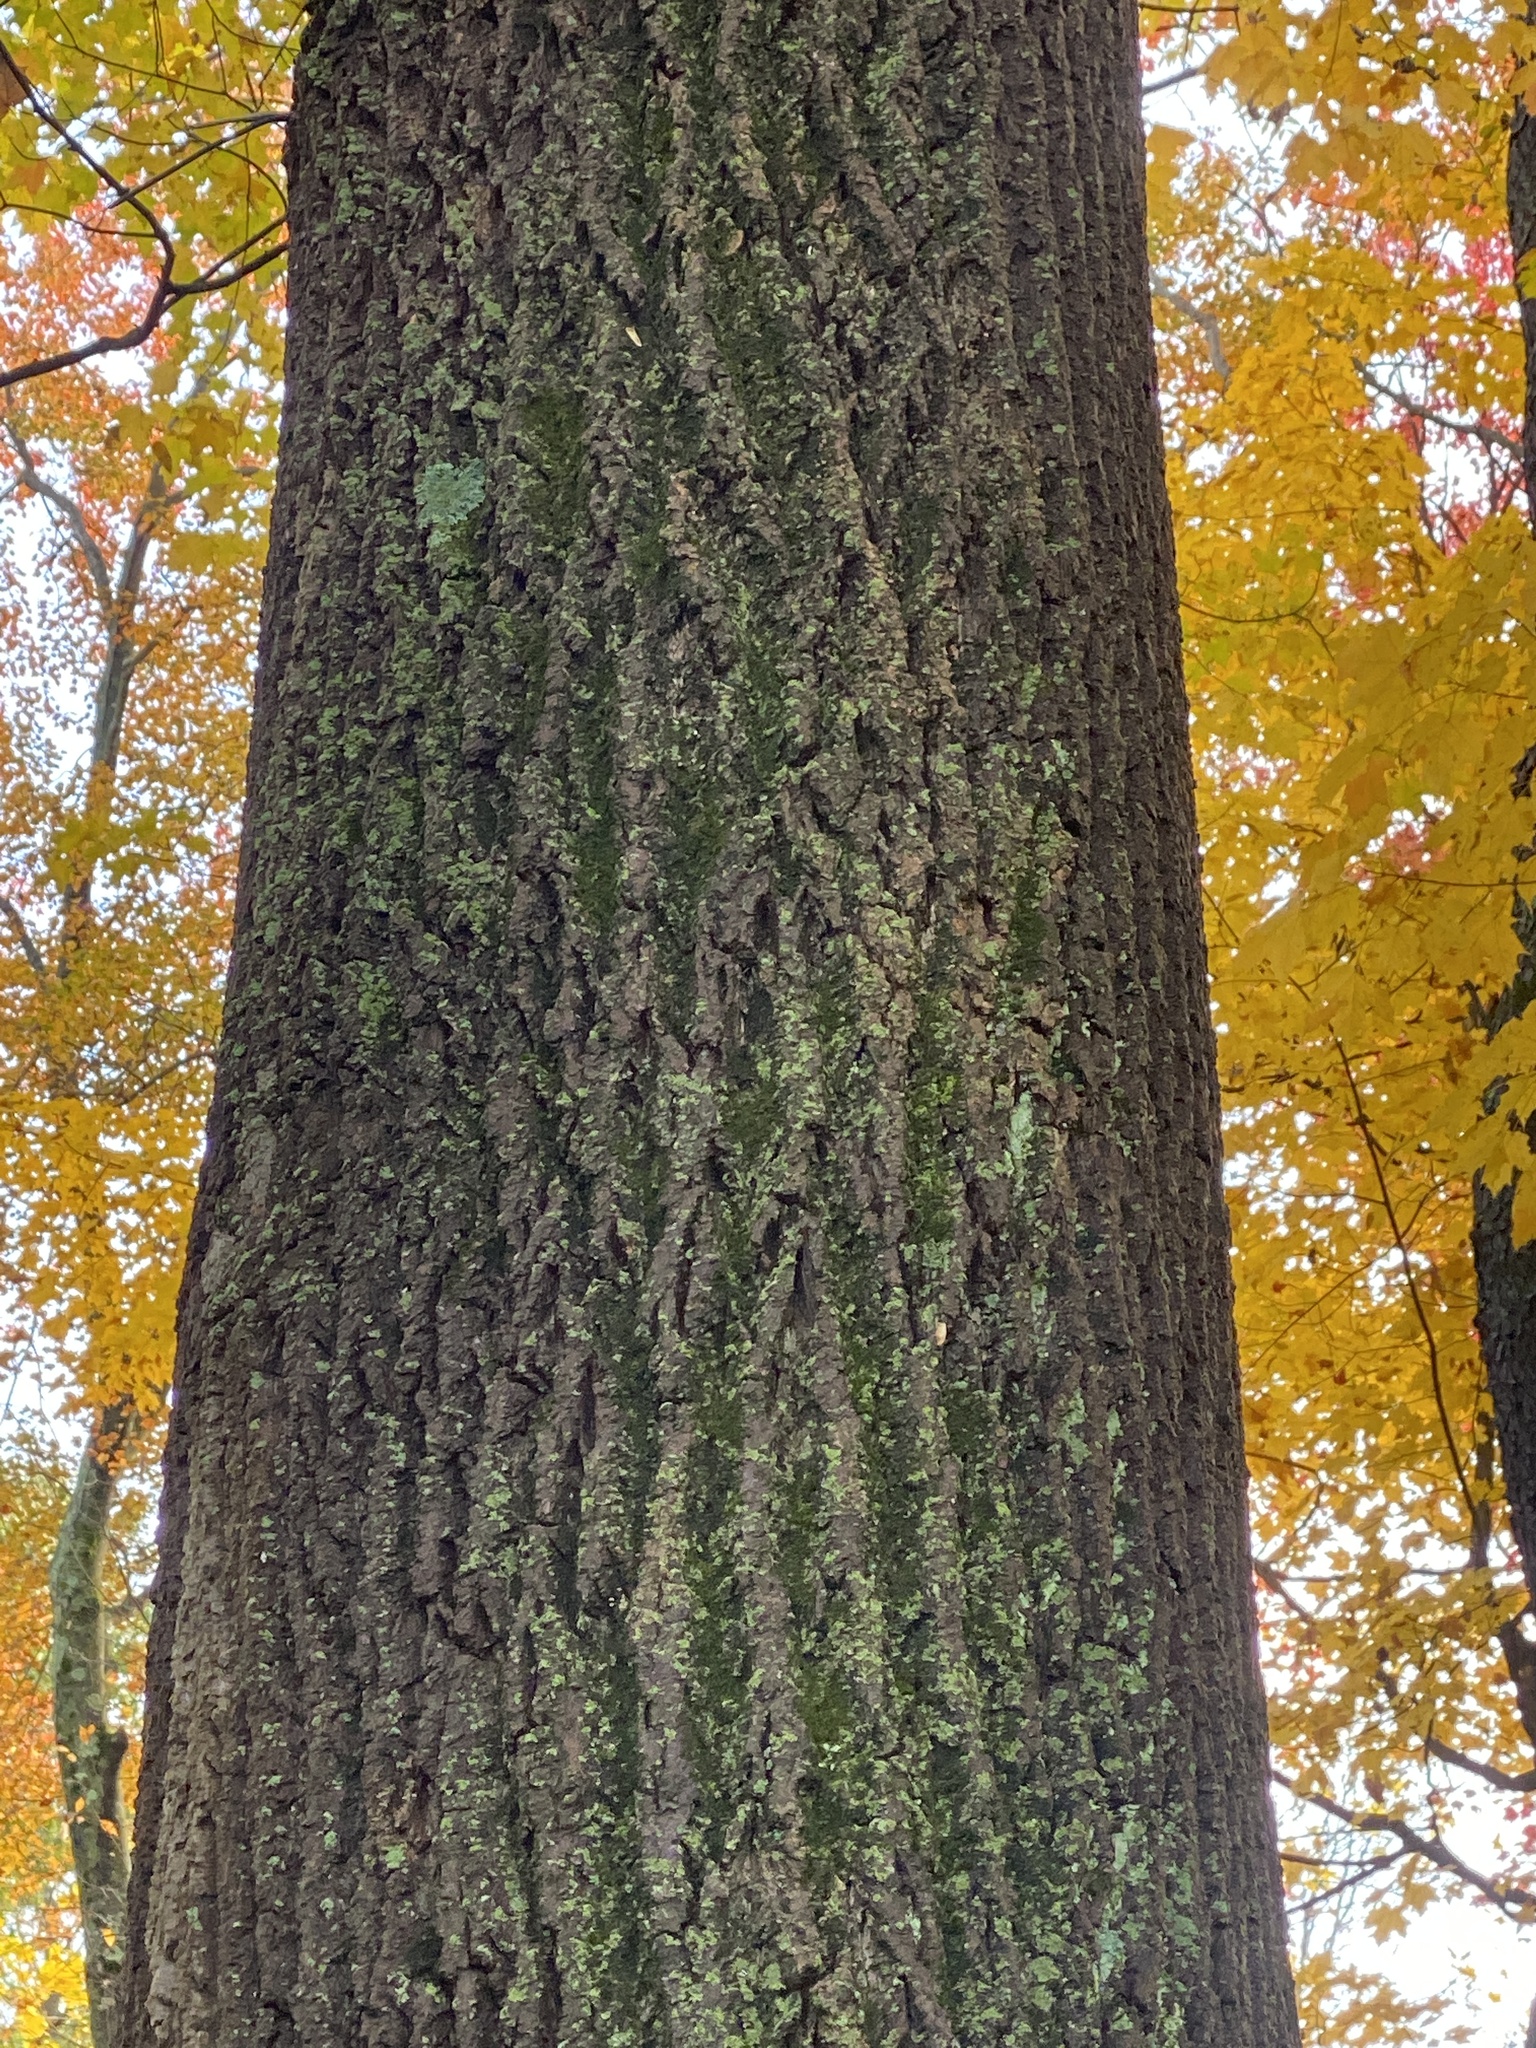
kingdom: Plantae
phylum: Tracheophyta
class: Magnoliopsida
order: Magnoliales
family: Magnoliaceae
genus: Liriodendron
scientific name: Liriodendron tulipifera
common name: Tulip tree
